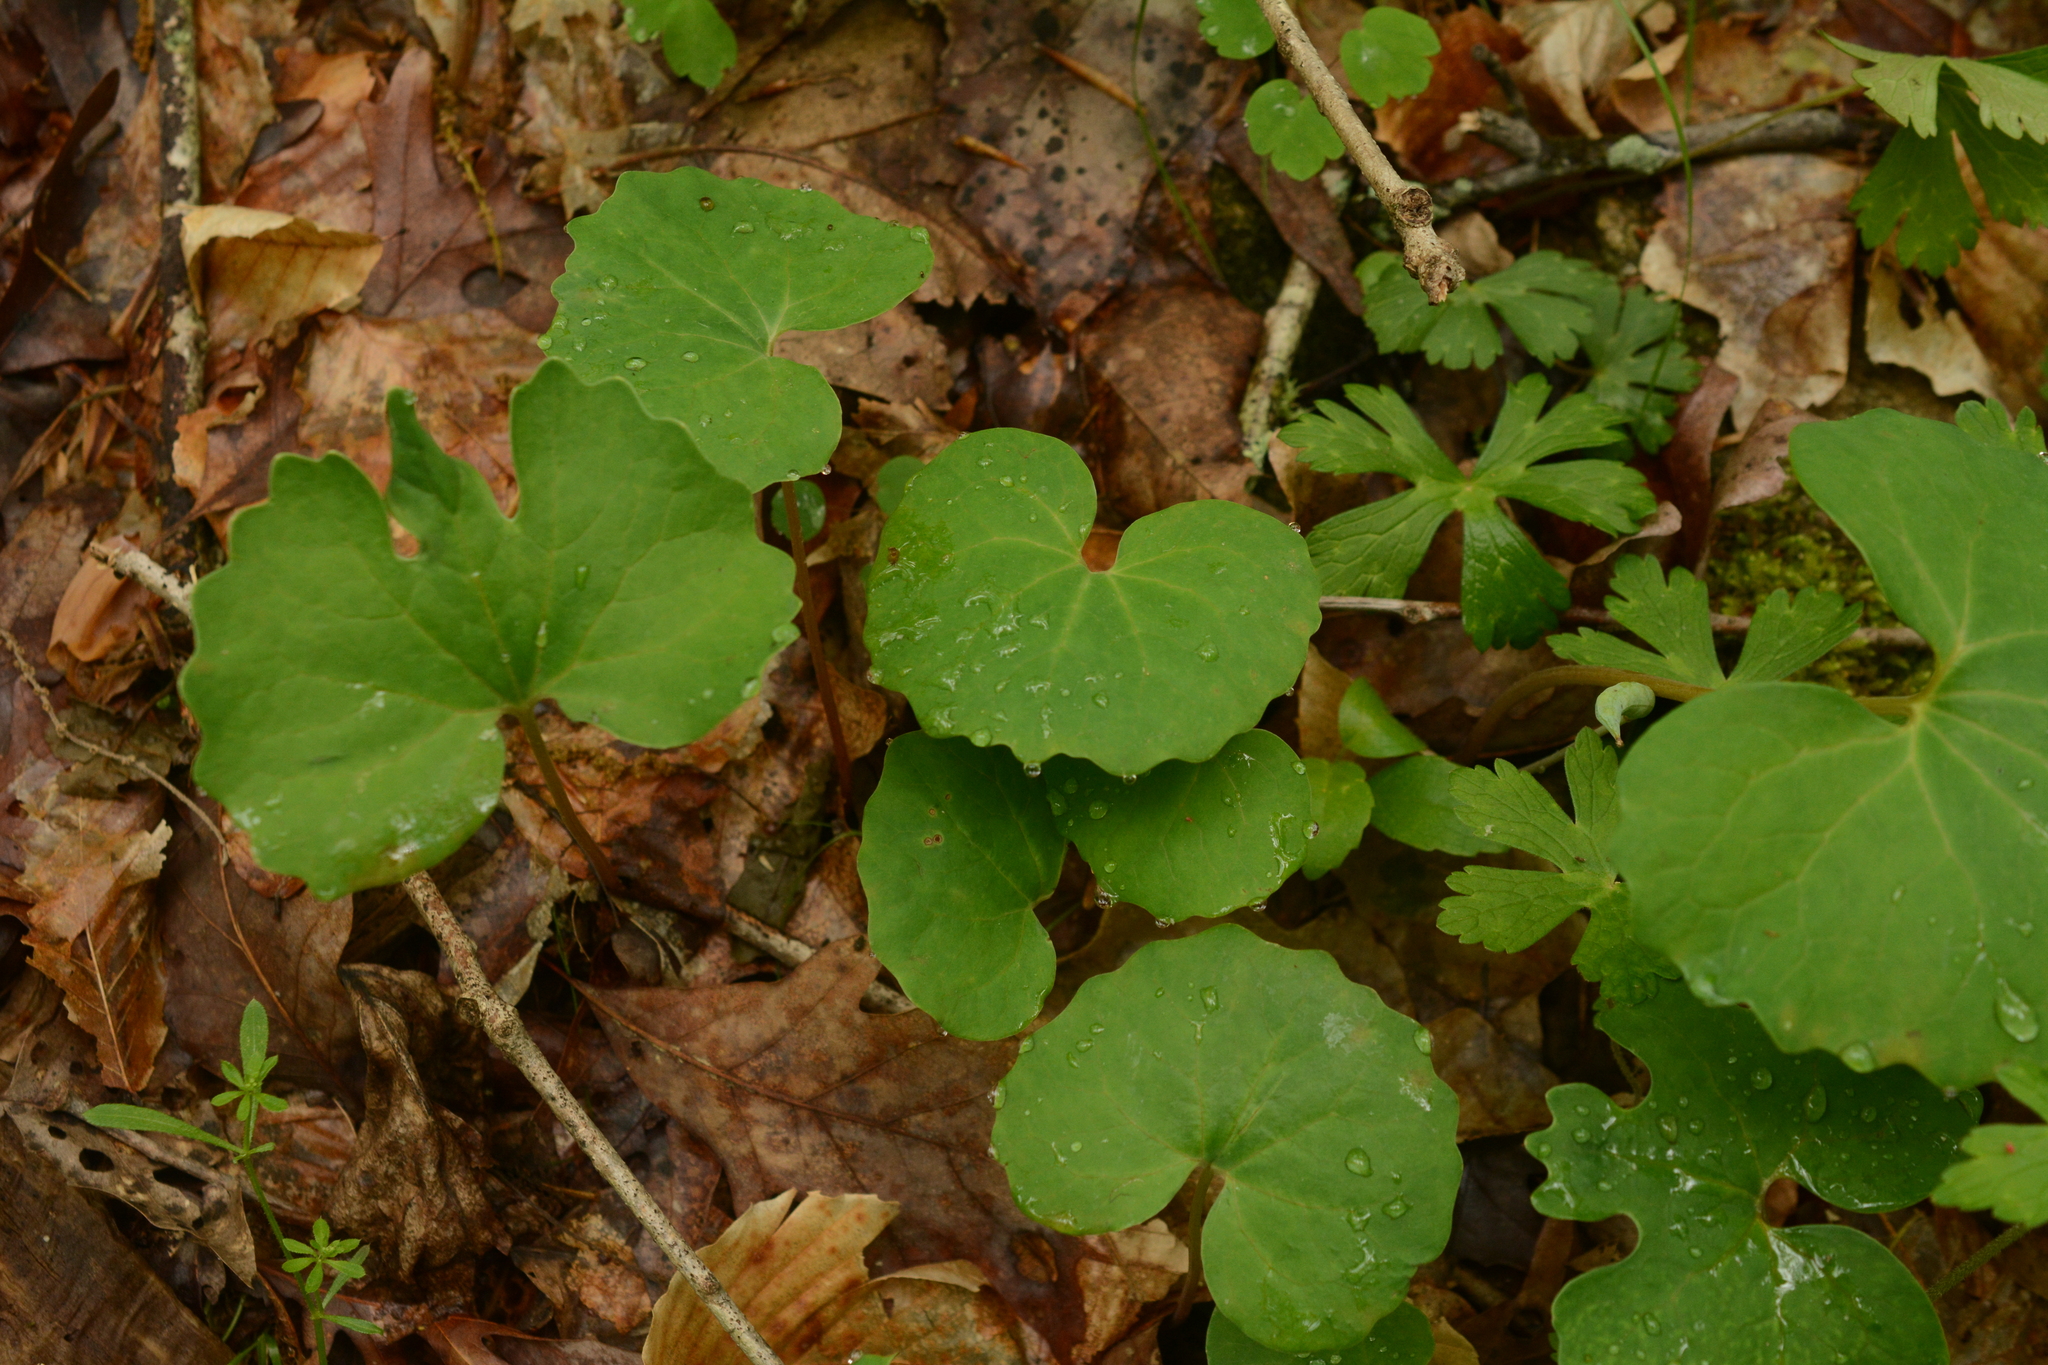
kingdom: Plantae
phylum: Tracheophyta
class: Magnoliopsida
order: Ranunculales
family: Papaveraceae
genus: Sanguinaria
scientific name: Sanguinaria canadensis
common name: Bloodroot
